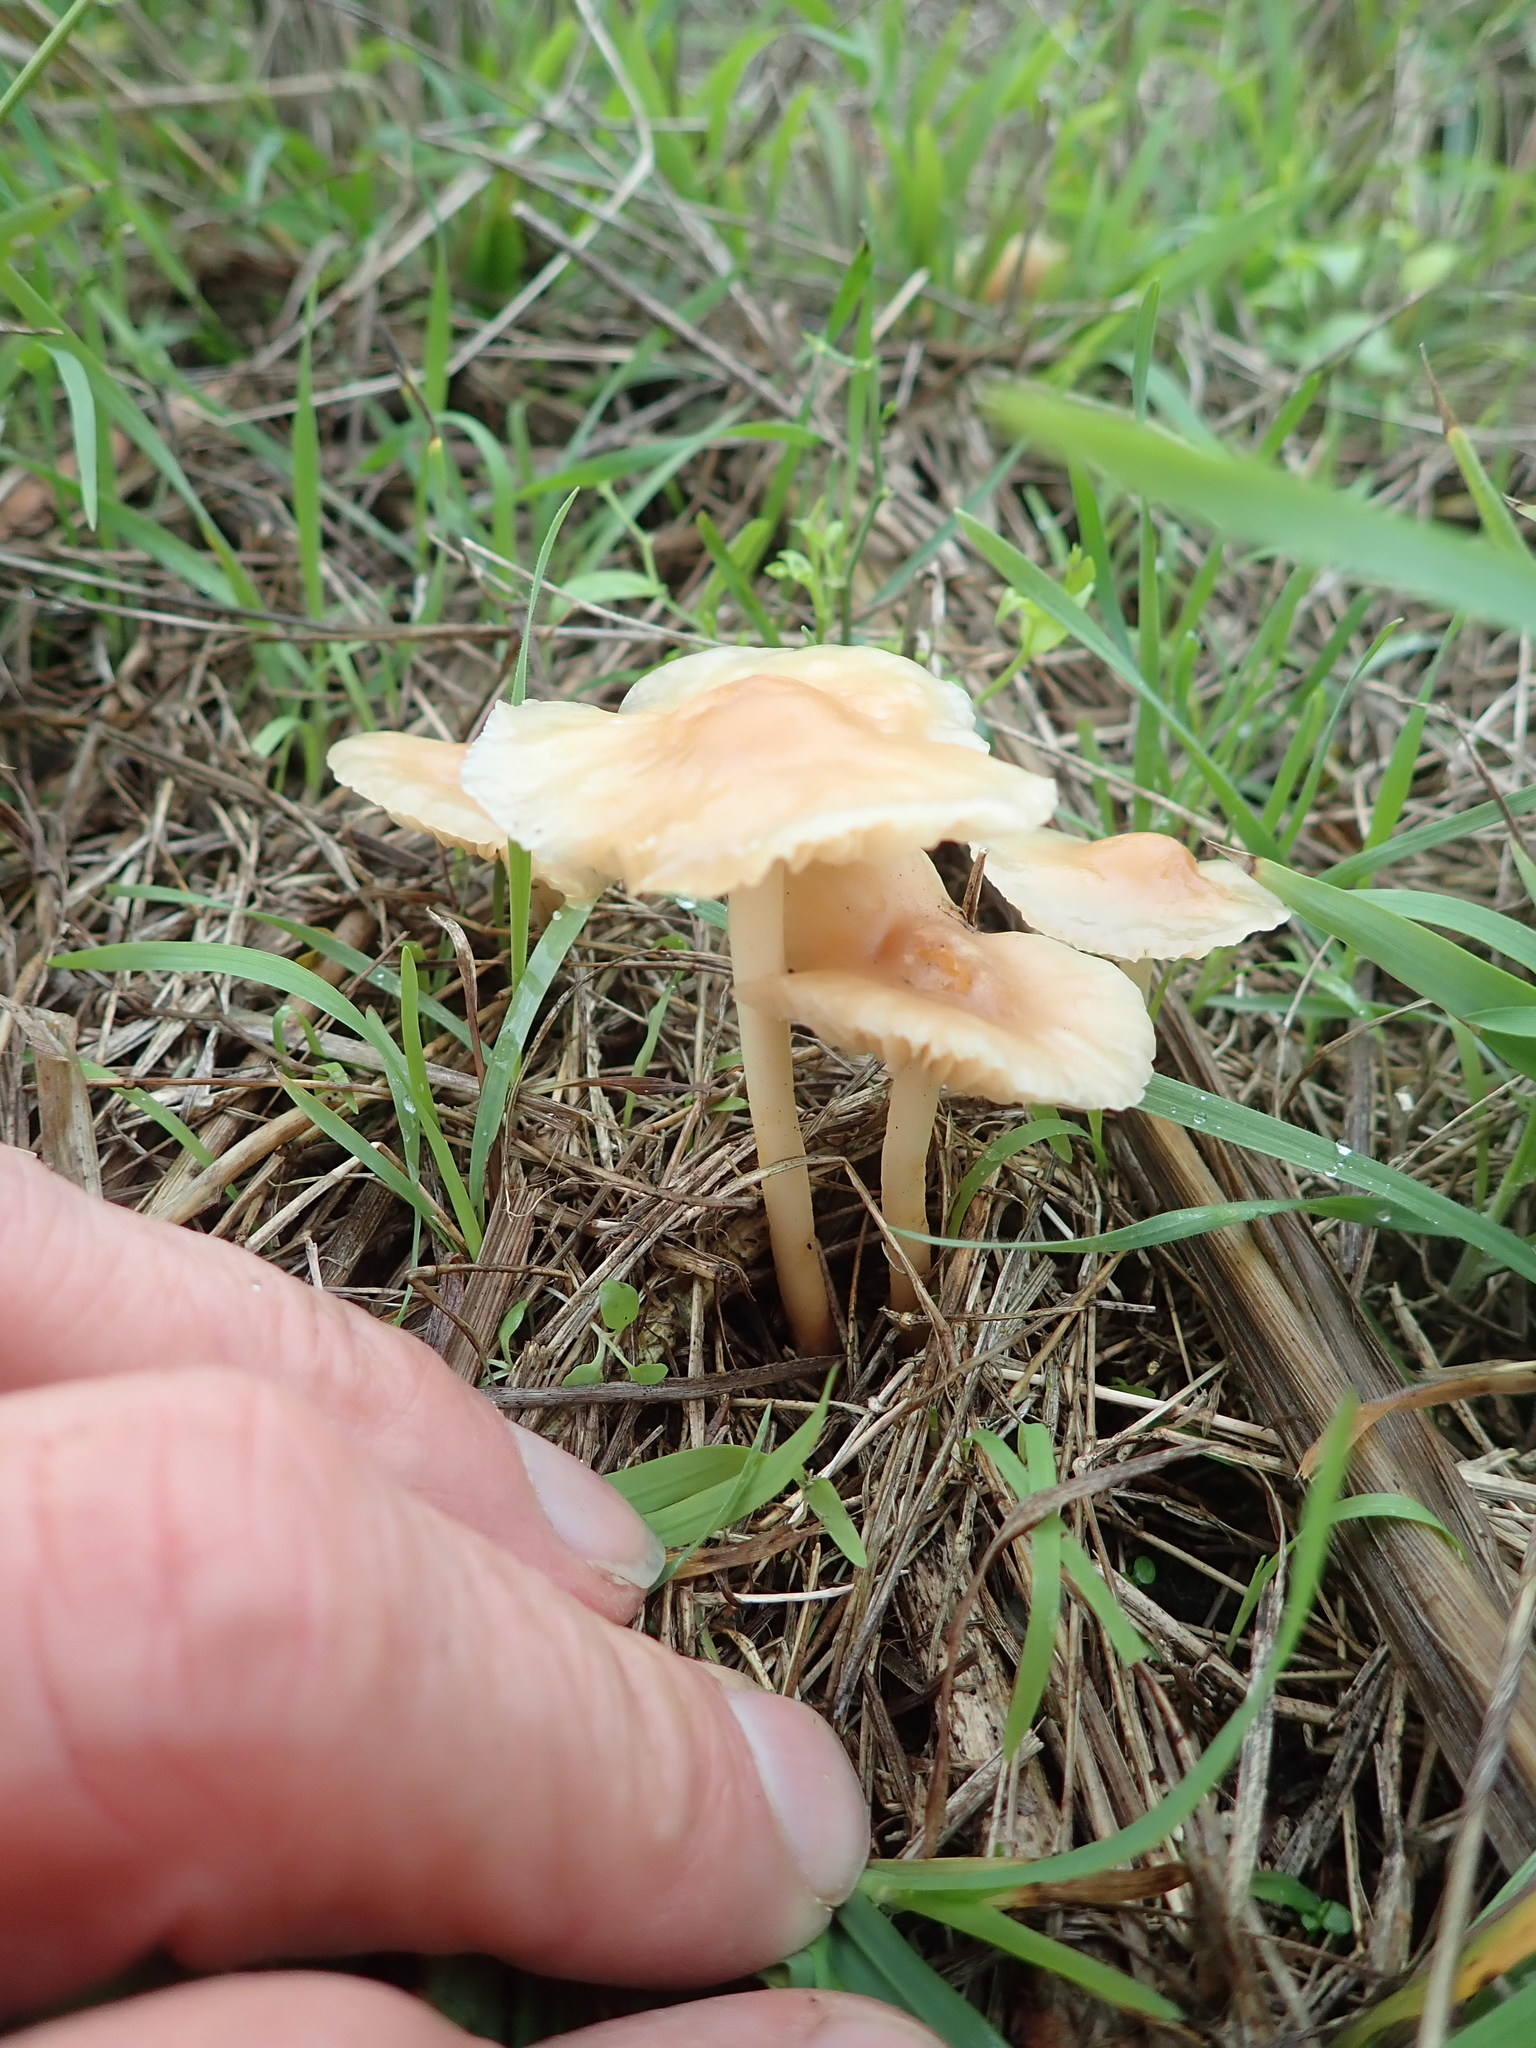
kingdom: Fungi
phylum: Basidiomycota
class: Agaricomycetes
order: Agaricales
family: Marasmiaceae
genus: Marasmius
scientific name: Marasmius oreades
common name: Fairy ring champignon
